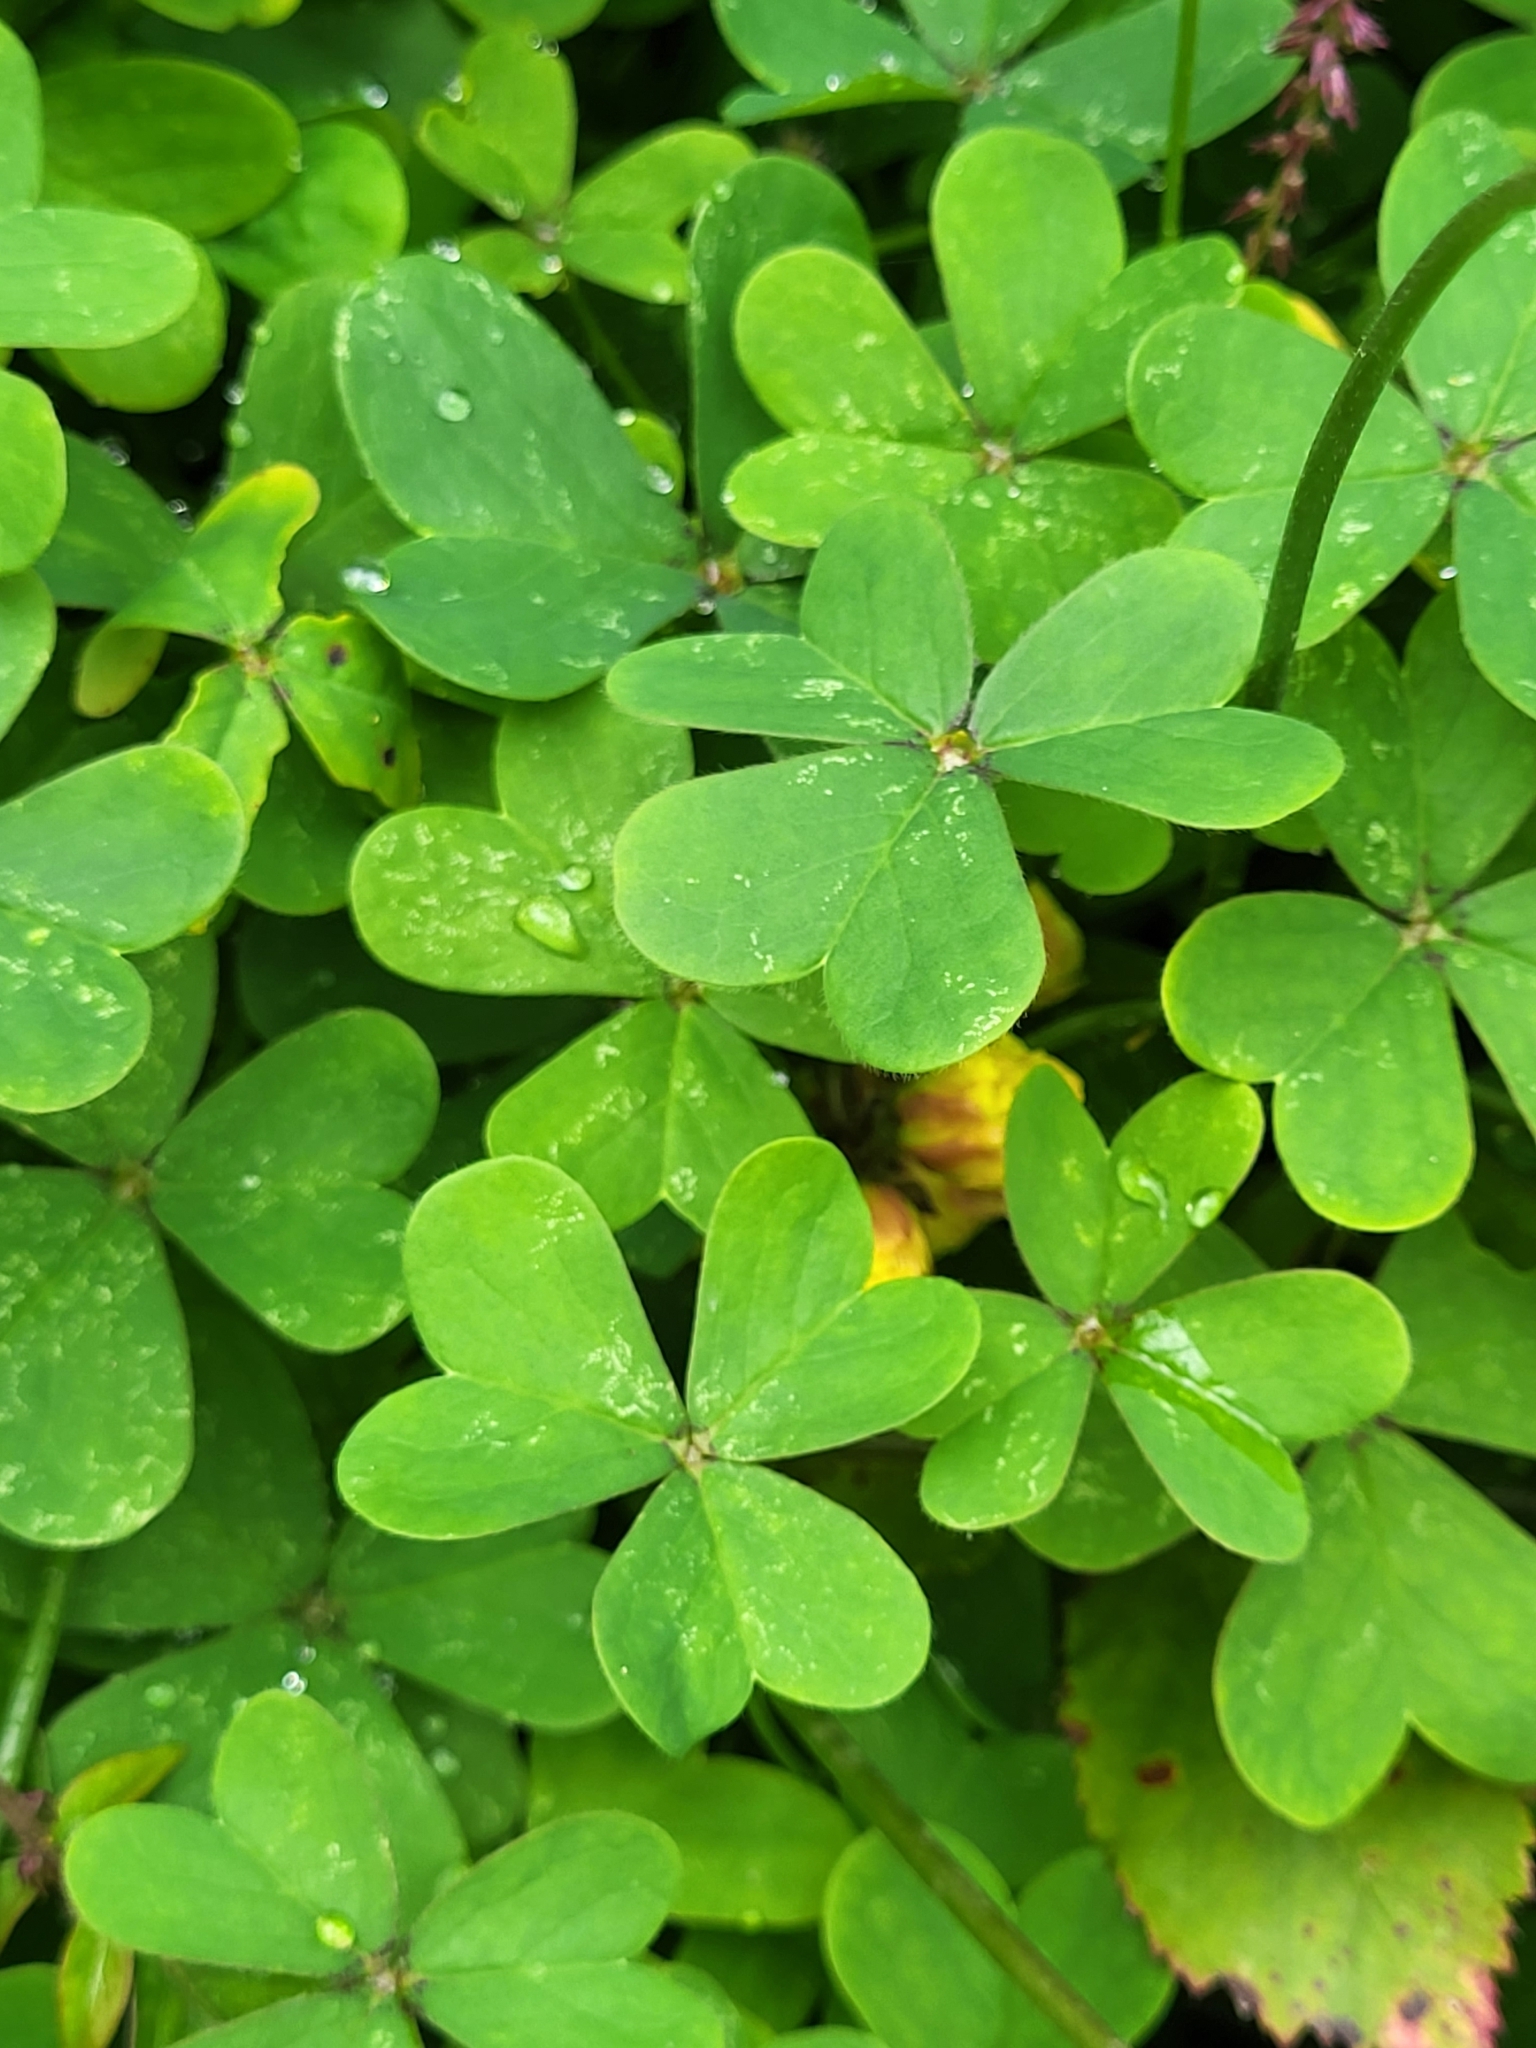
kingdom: Plantae
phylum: Tracheophyta
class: Magnoliopsida
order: Oxalidales
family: Oxalidaceae
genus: Oxalis
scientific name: Oxalis pes-caprae
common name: Bermuda-buttercup
